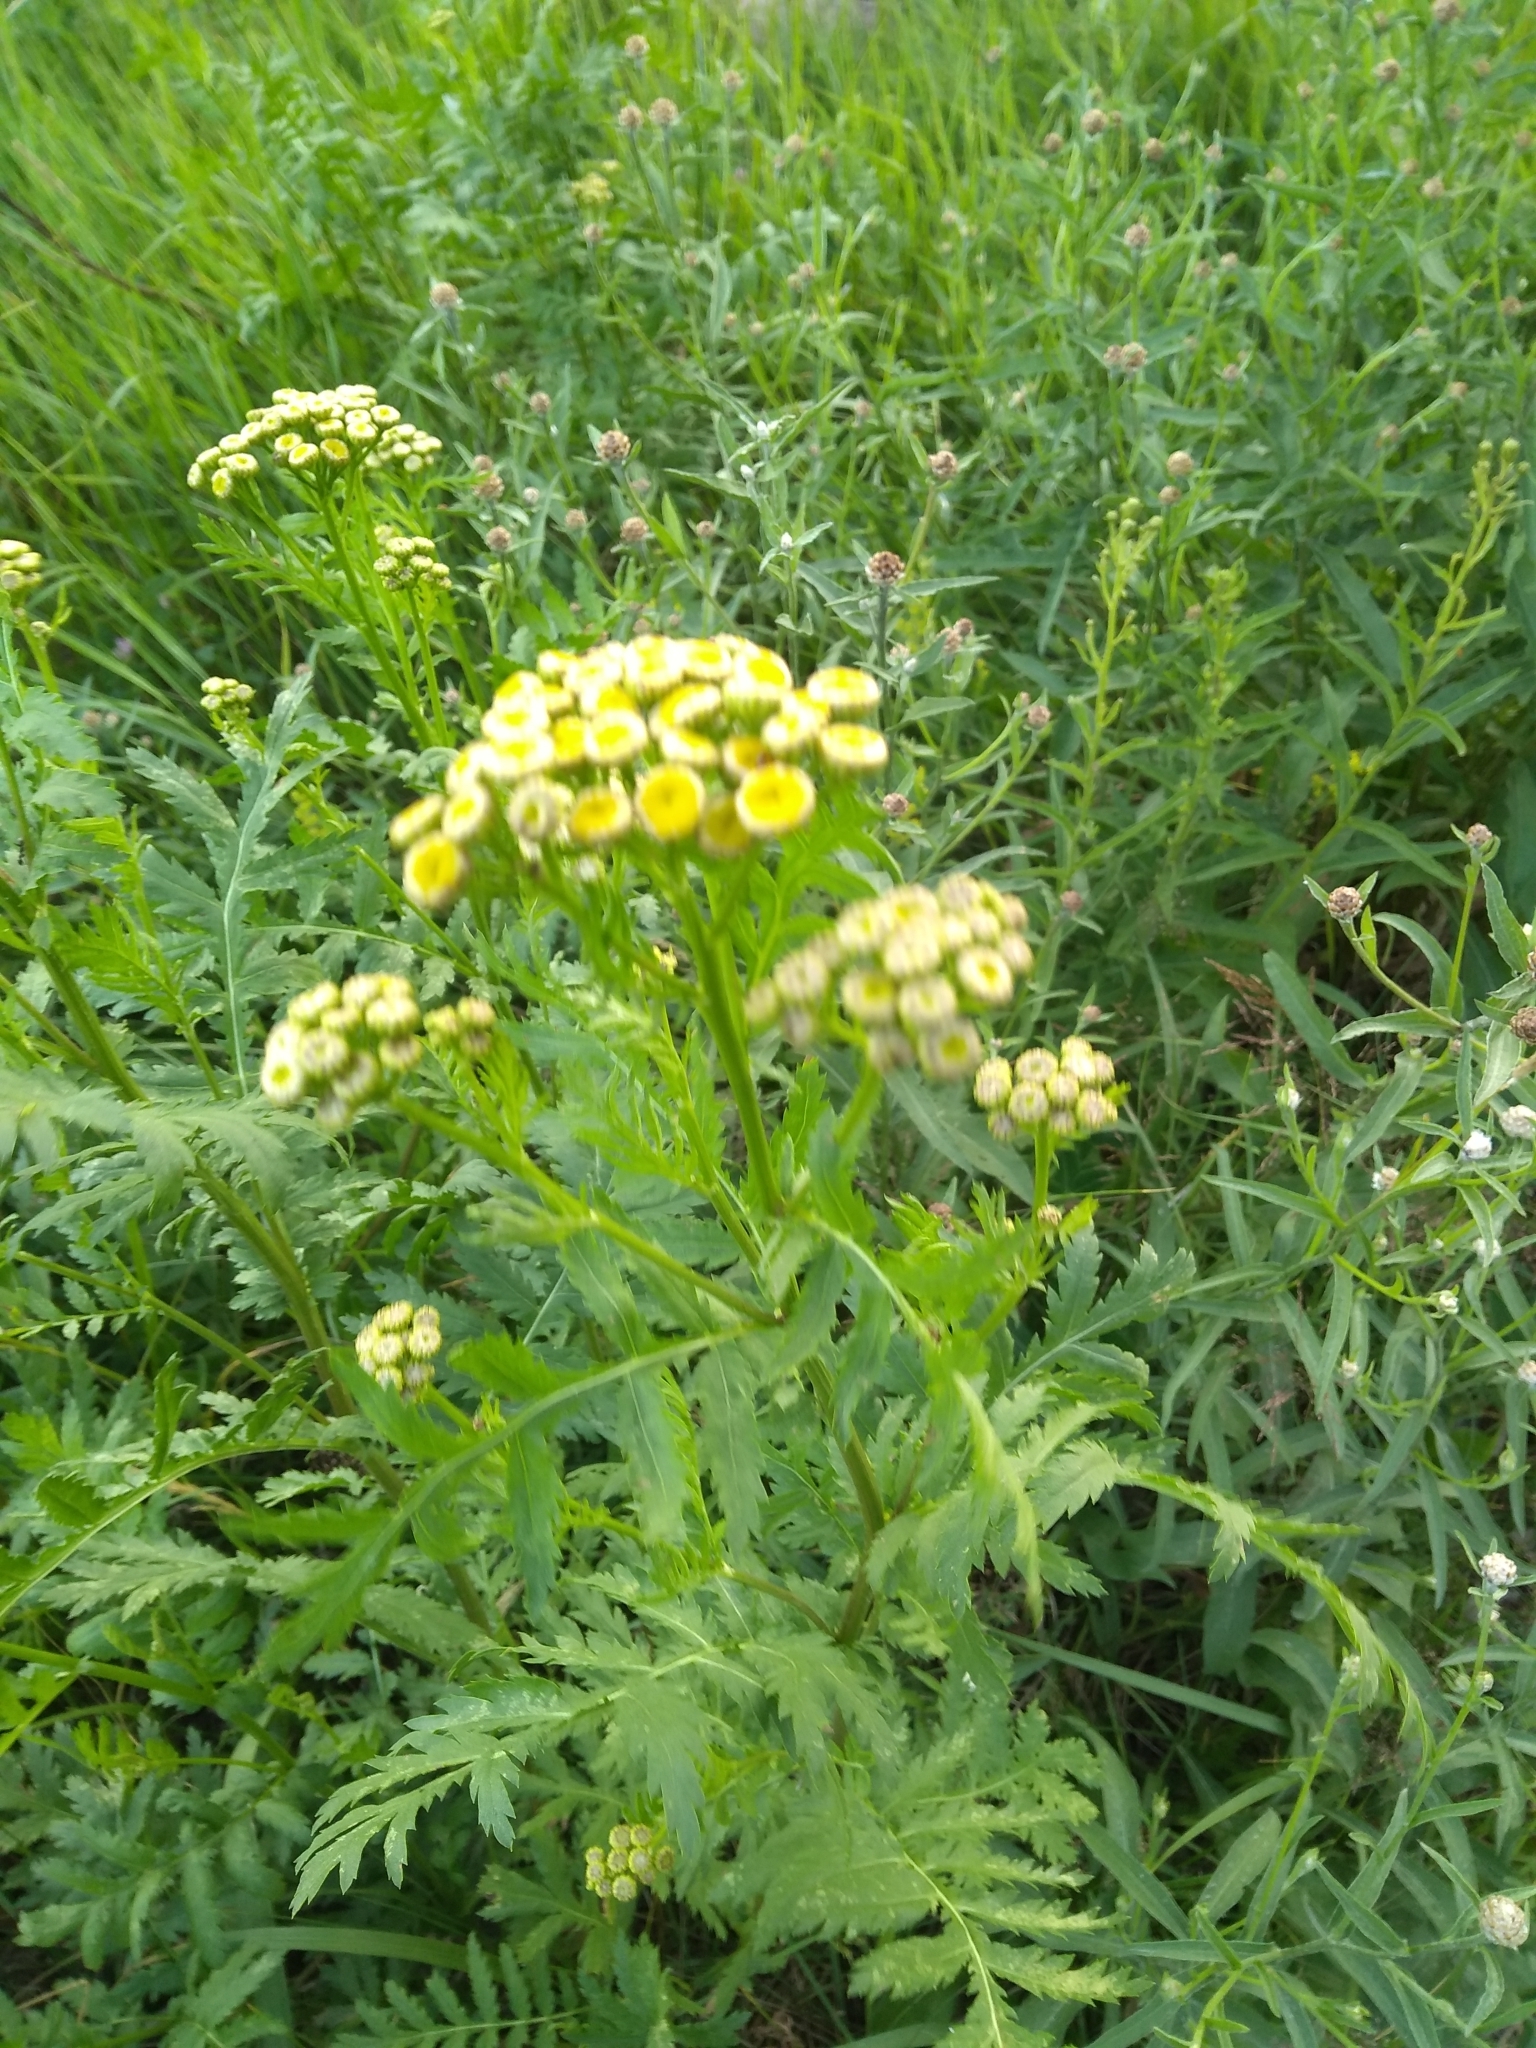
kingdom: Plantae
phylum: Tracheophyta
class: Magnoliopsida
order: Asterales
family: Asteraceae
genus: Tanacetum
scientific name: Tanacetum vulgare
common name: Common tansy
